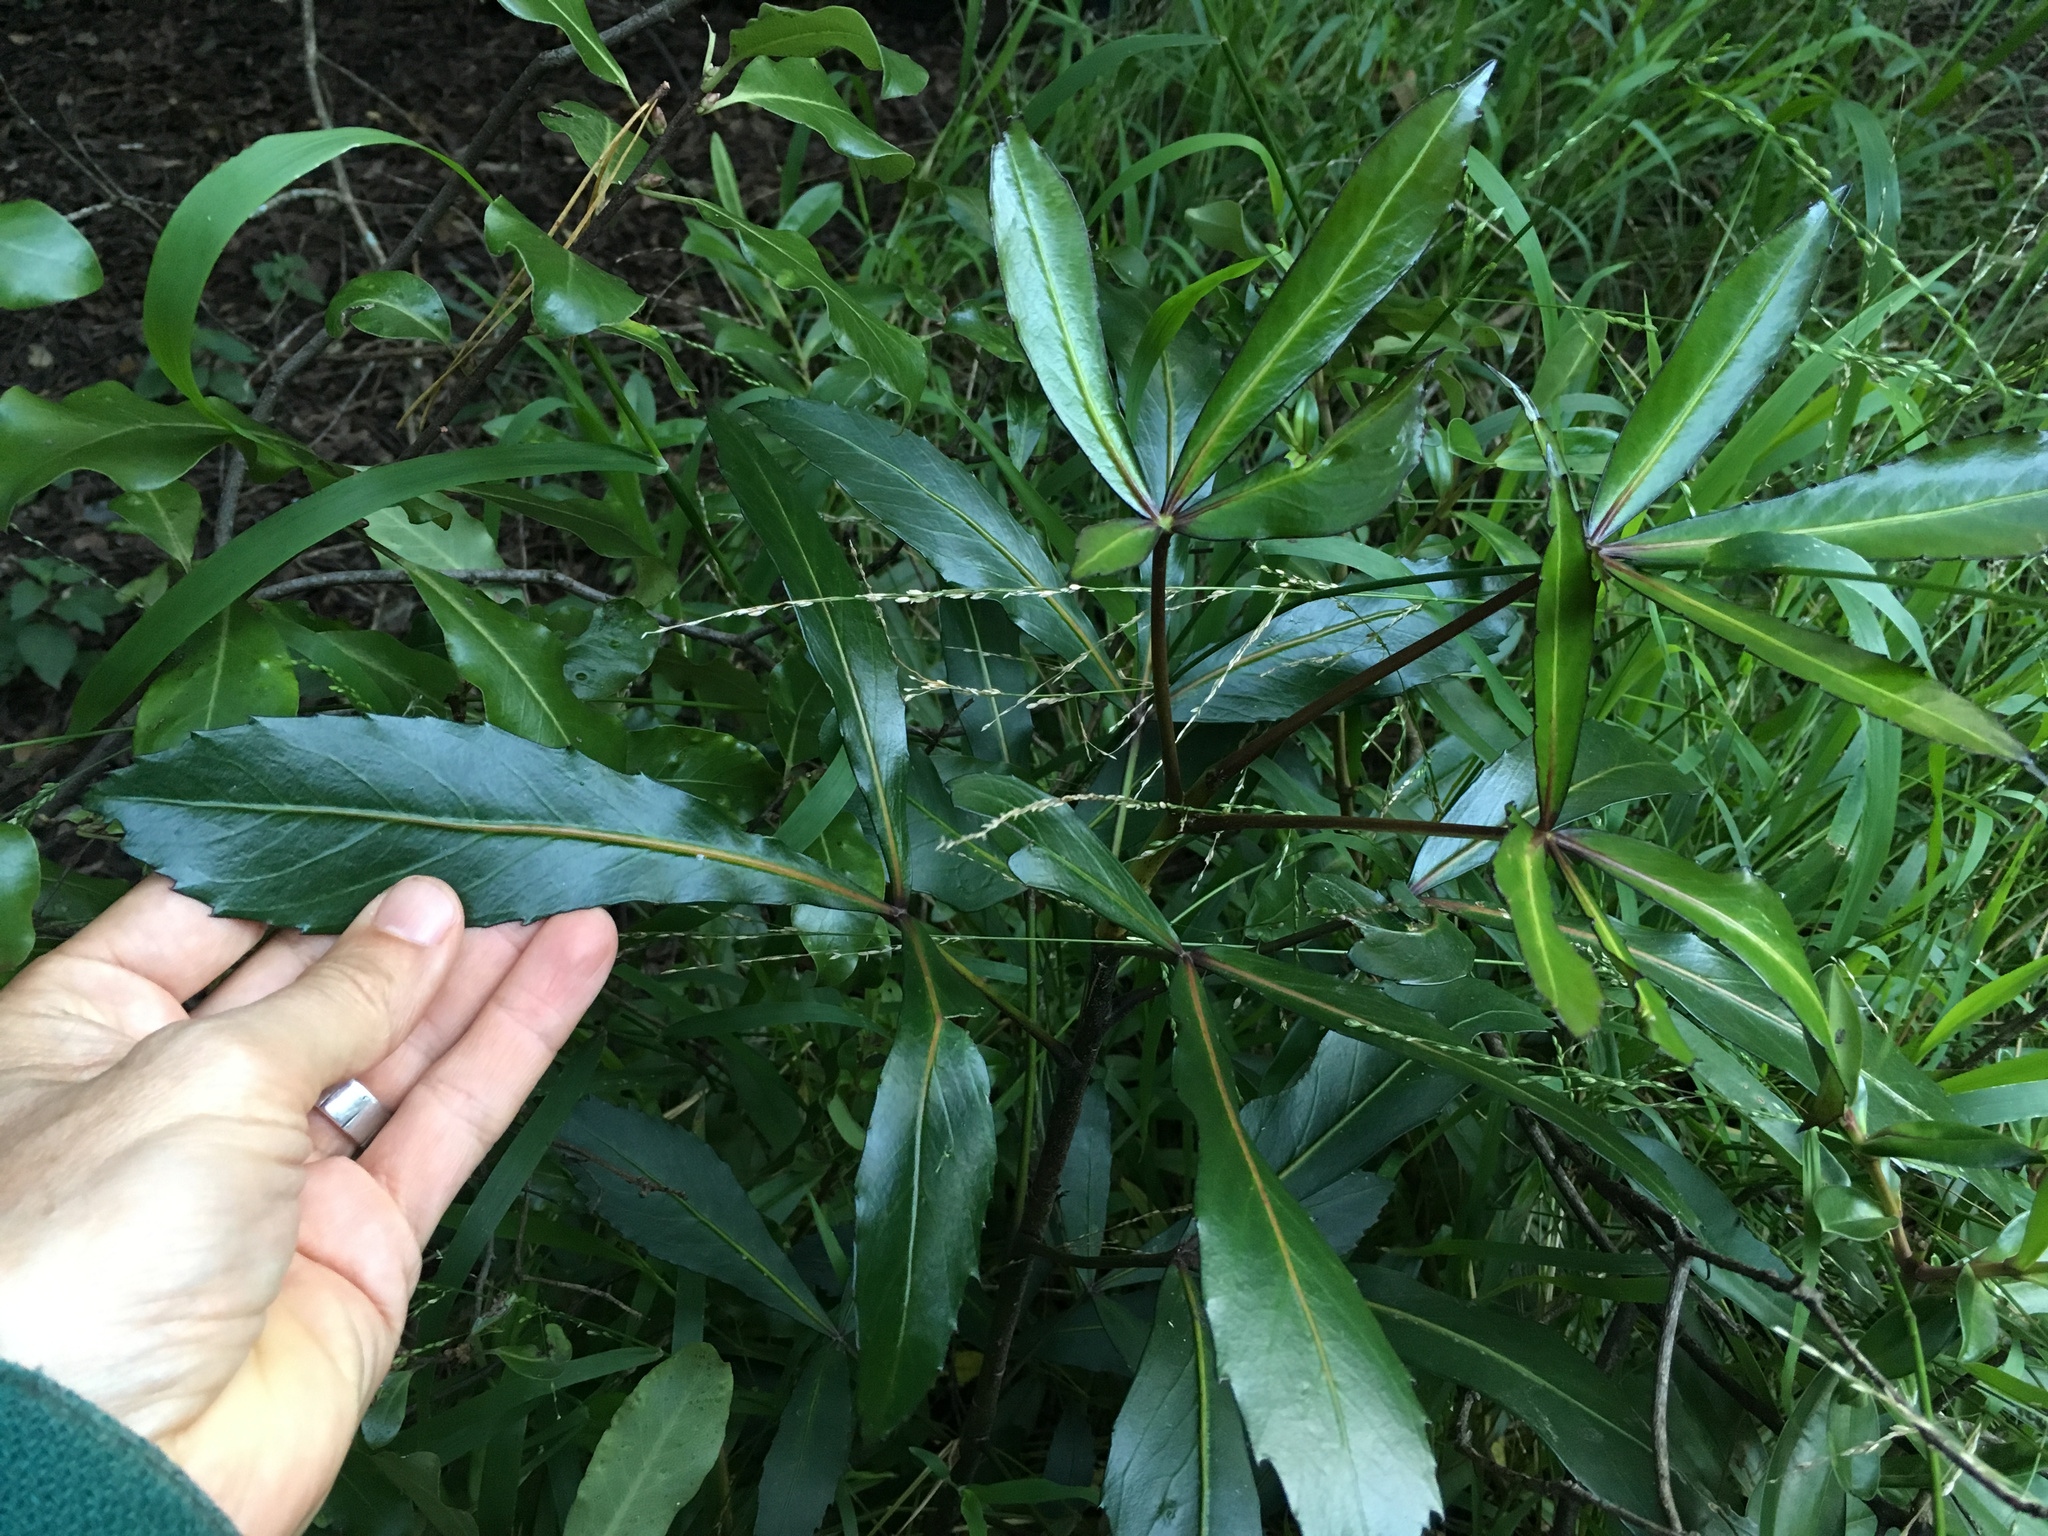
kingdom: Plantae
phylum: Tracheophyta
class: Magnoliopsida
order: Apiales
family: Araliaceae
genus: Pseudopanax
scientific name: Pseudopanax
